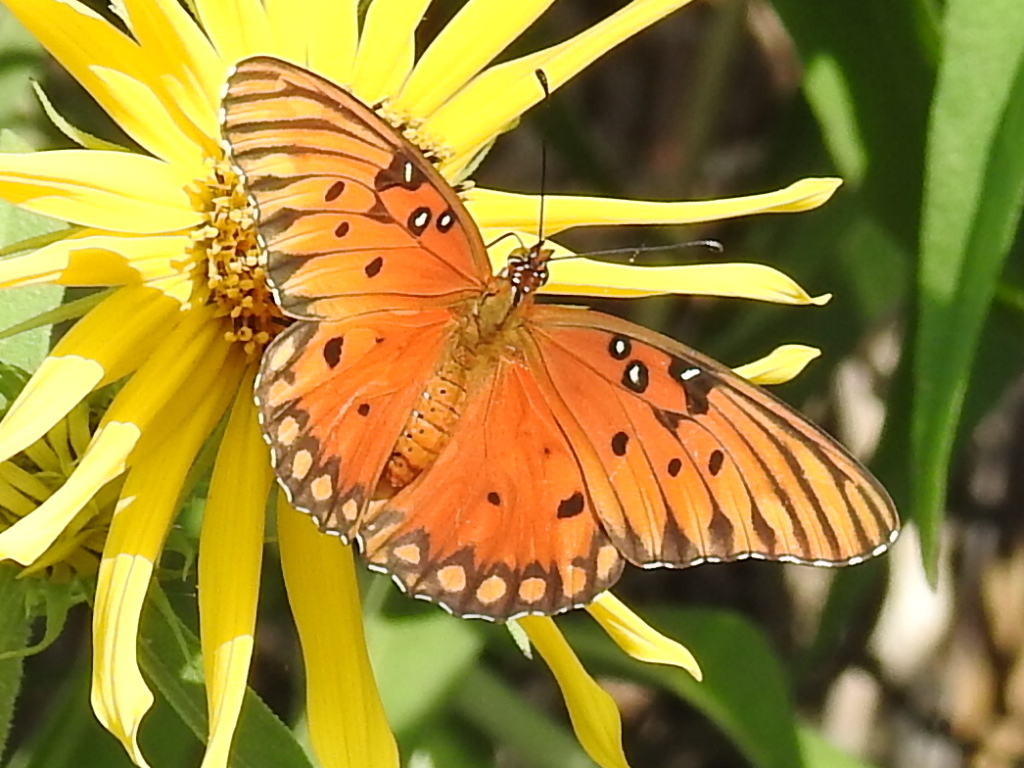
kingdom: Animalia
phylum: Arthropoda
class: Insecta
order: Lepidoptera
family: Nymphalidae
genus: Dione
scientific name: Dione vanillae
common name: Gulf fritillary
